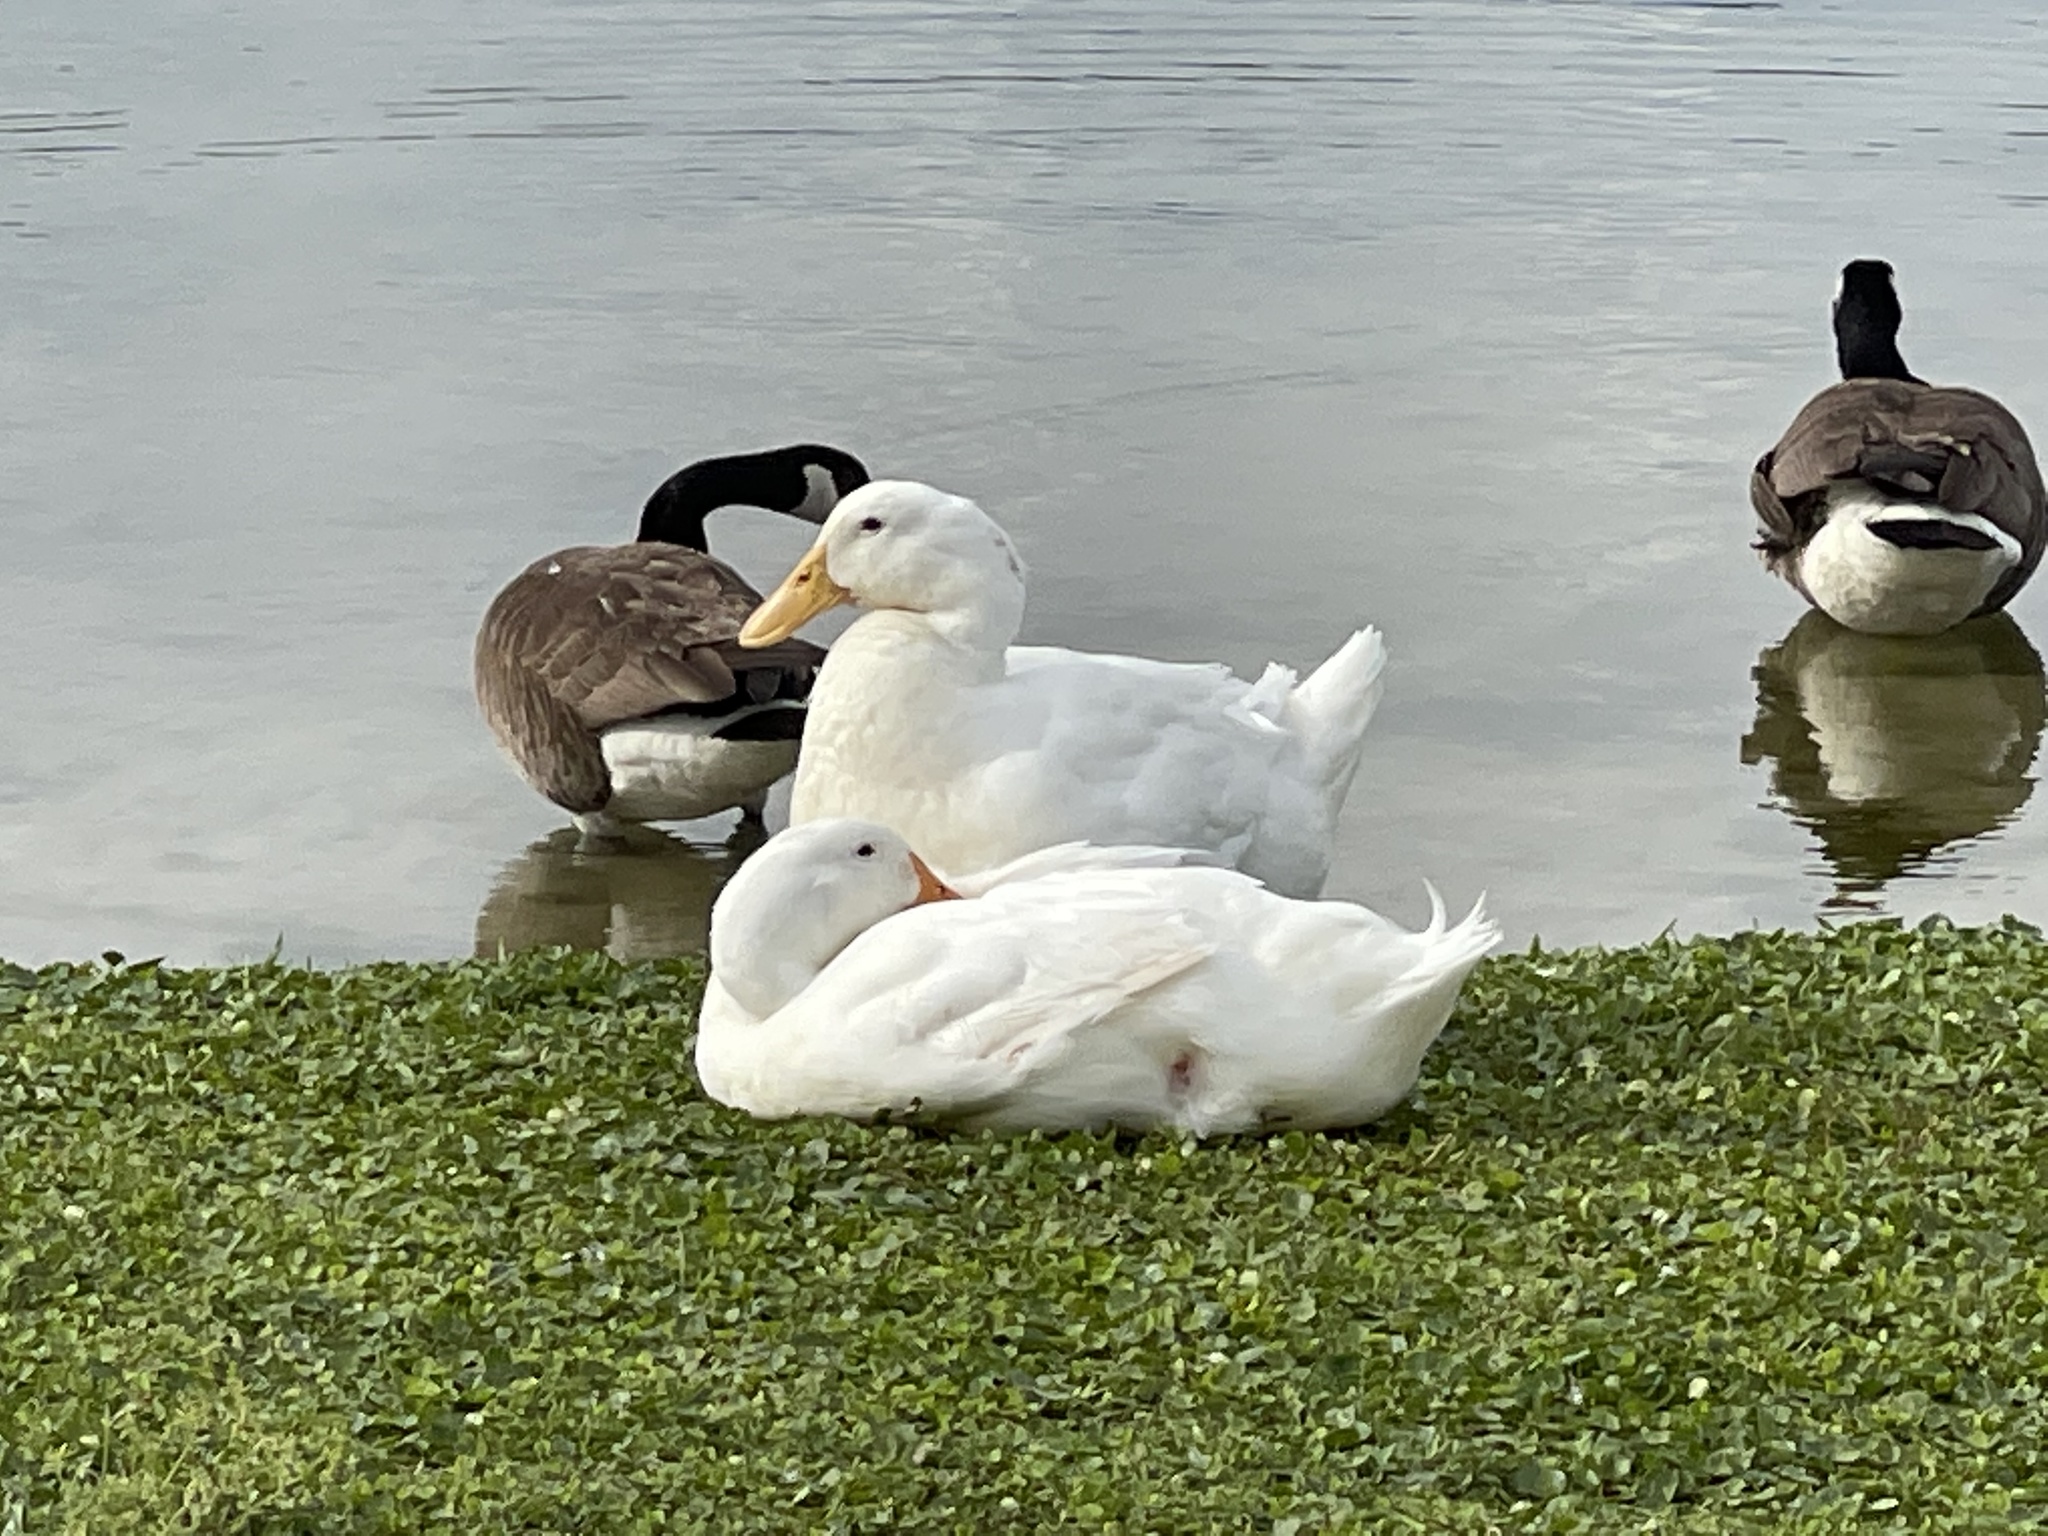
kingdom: Animalia
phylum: Chordata
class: Aves
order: Anseriformes
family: Anatidae
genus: Anas
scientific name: Anas platyrhynchos
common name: Mallard
